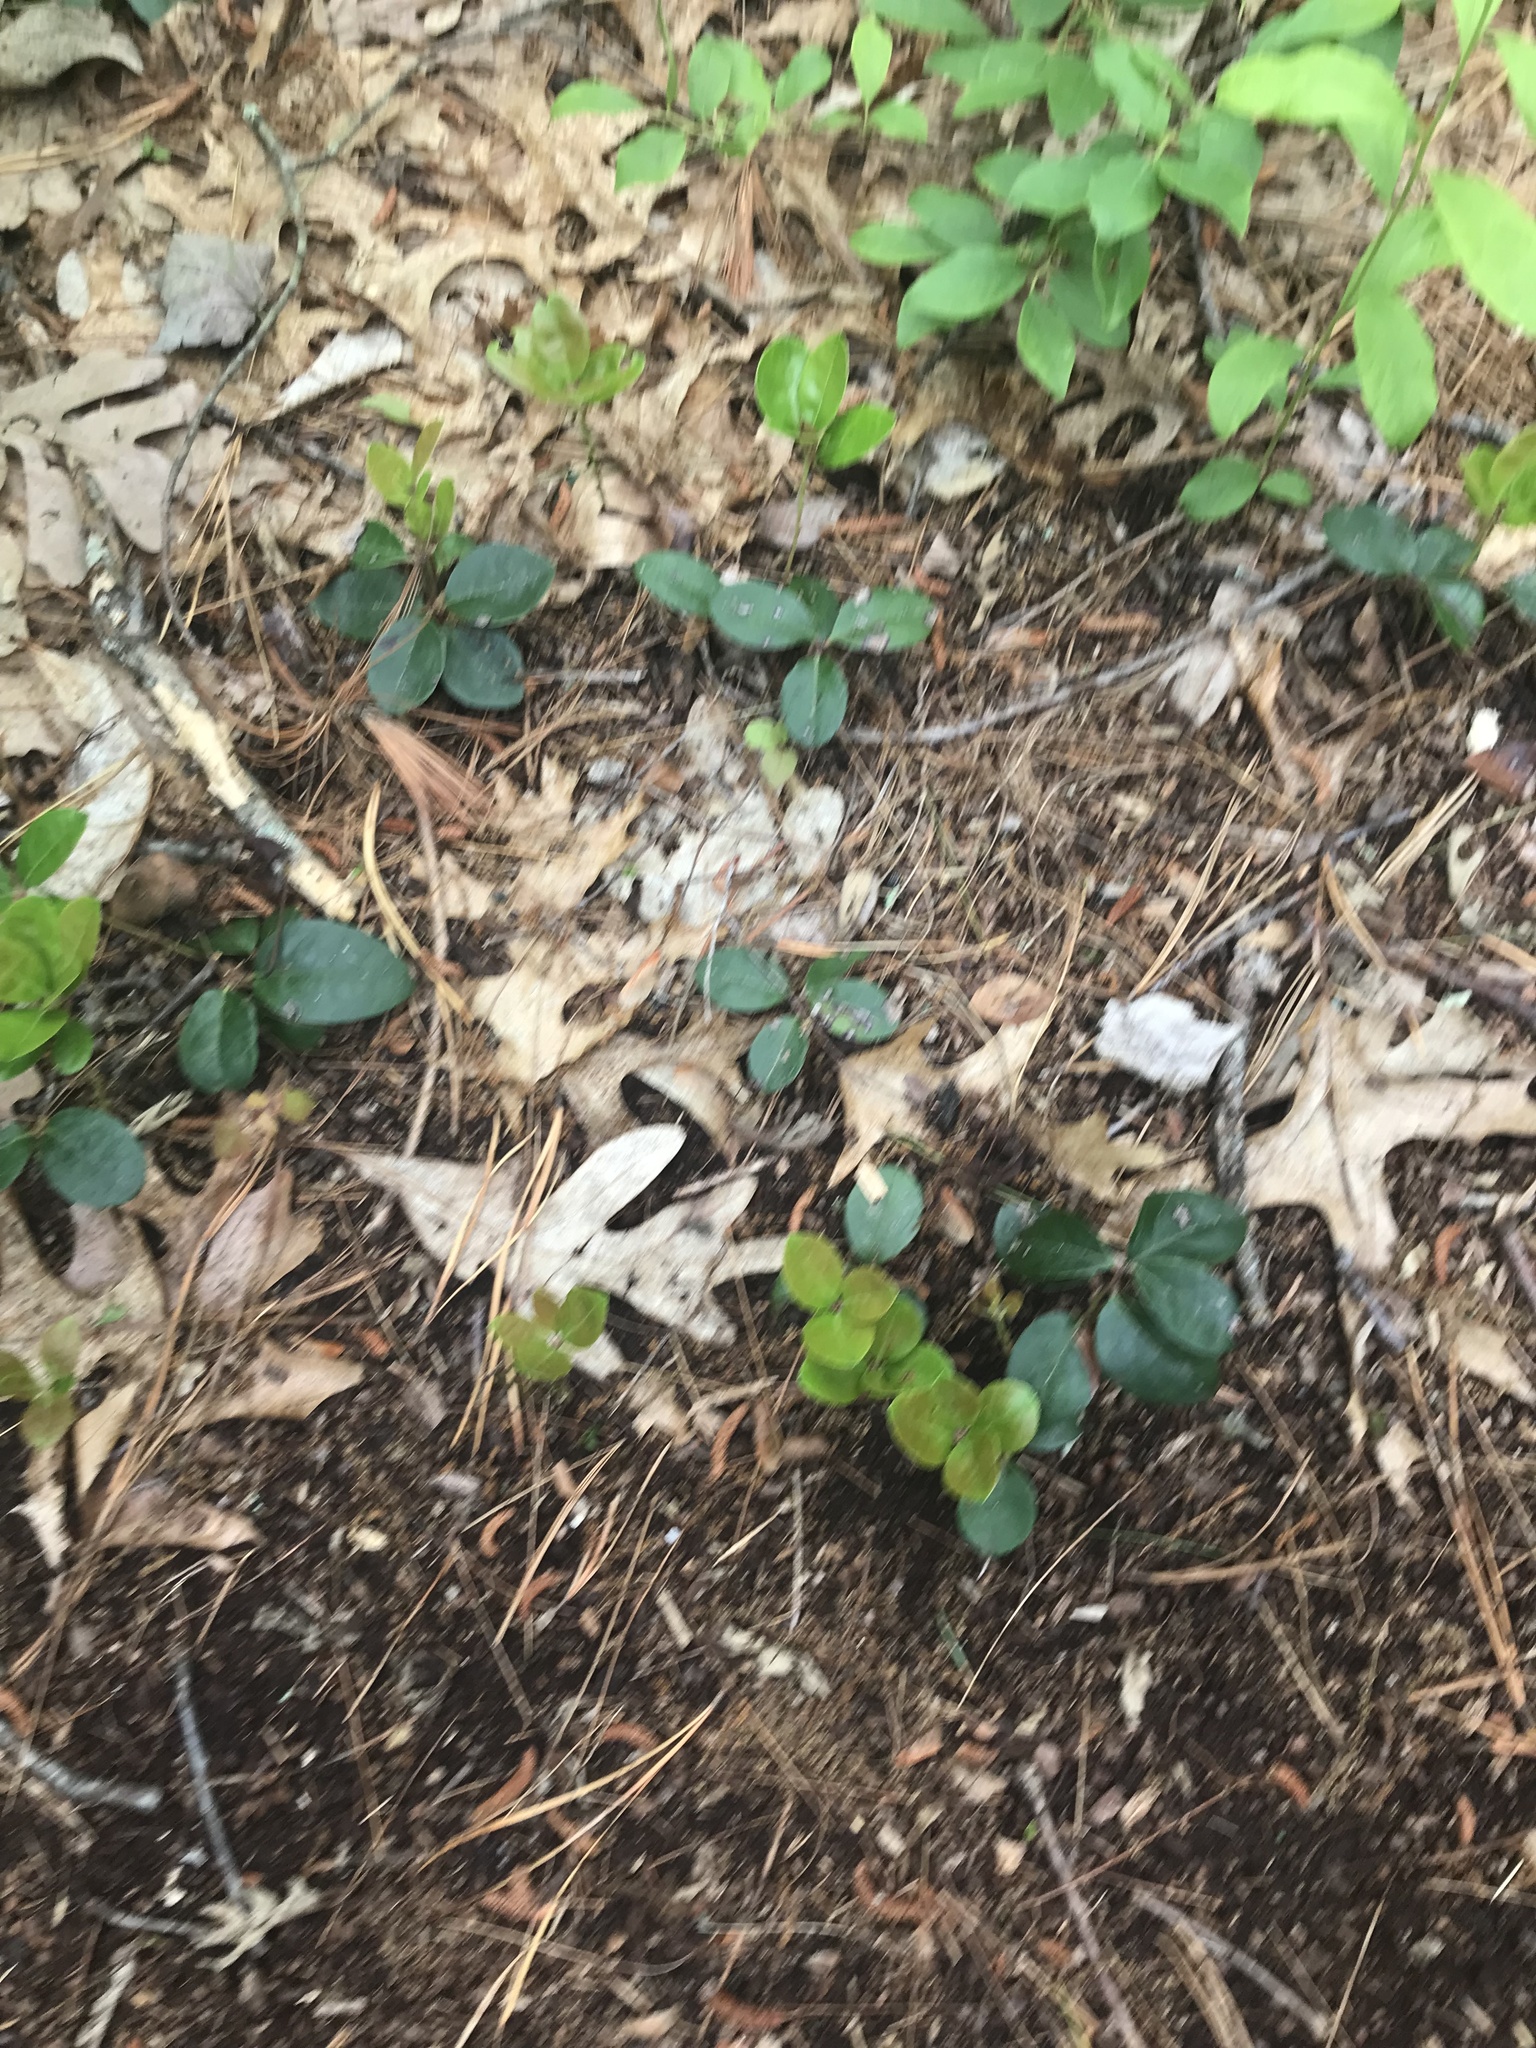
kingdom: Plantae
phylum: Tracheophyta
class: Magnoliopsida
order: Ericales
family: Ericaceae
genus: Gaultheria
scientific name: Gaultheria procumbens
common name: Checkerberry
